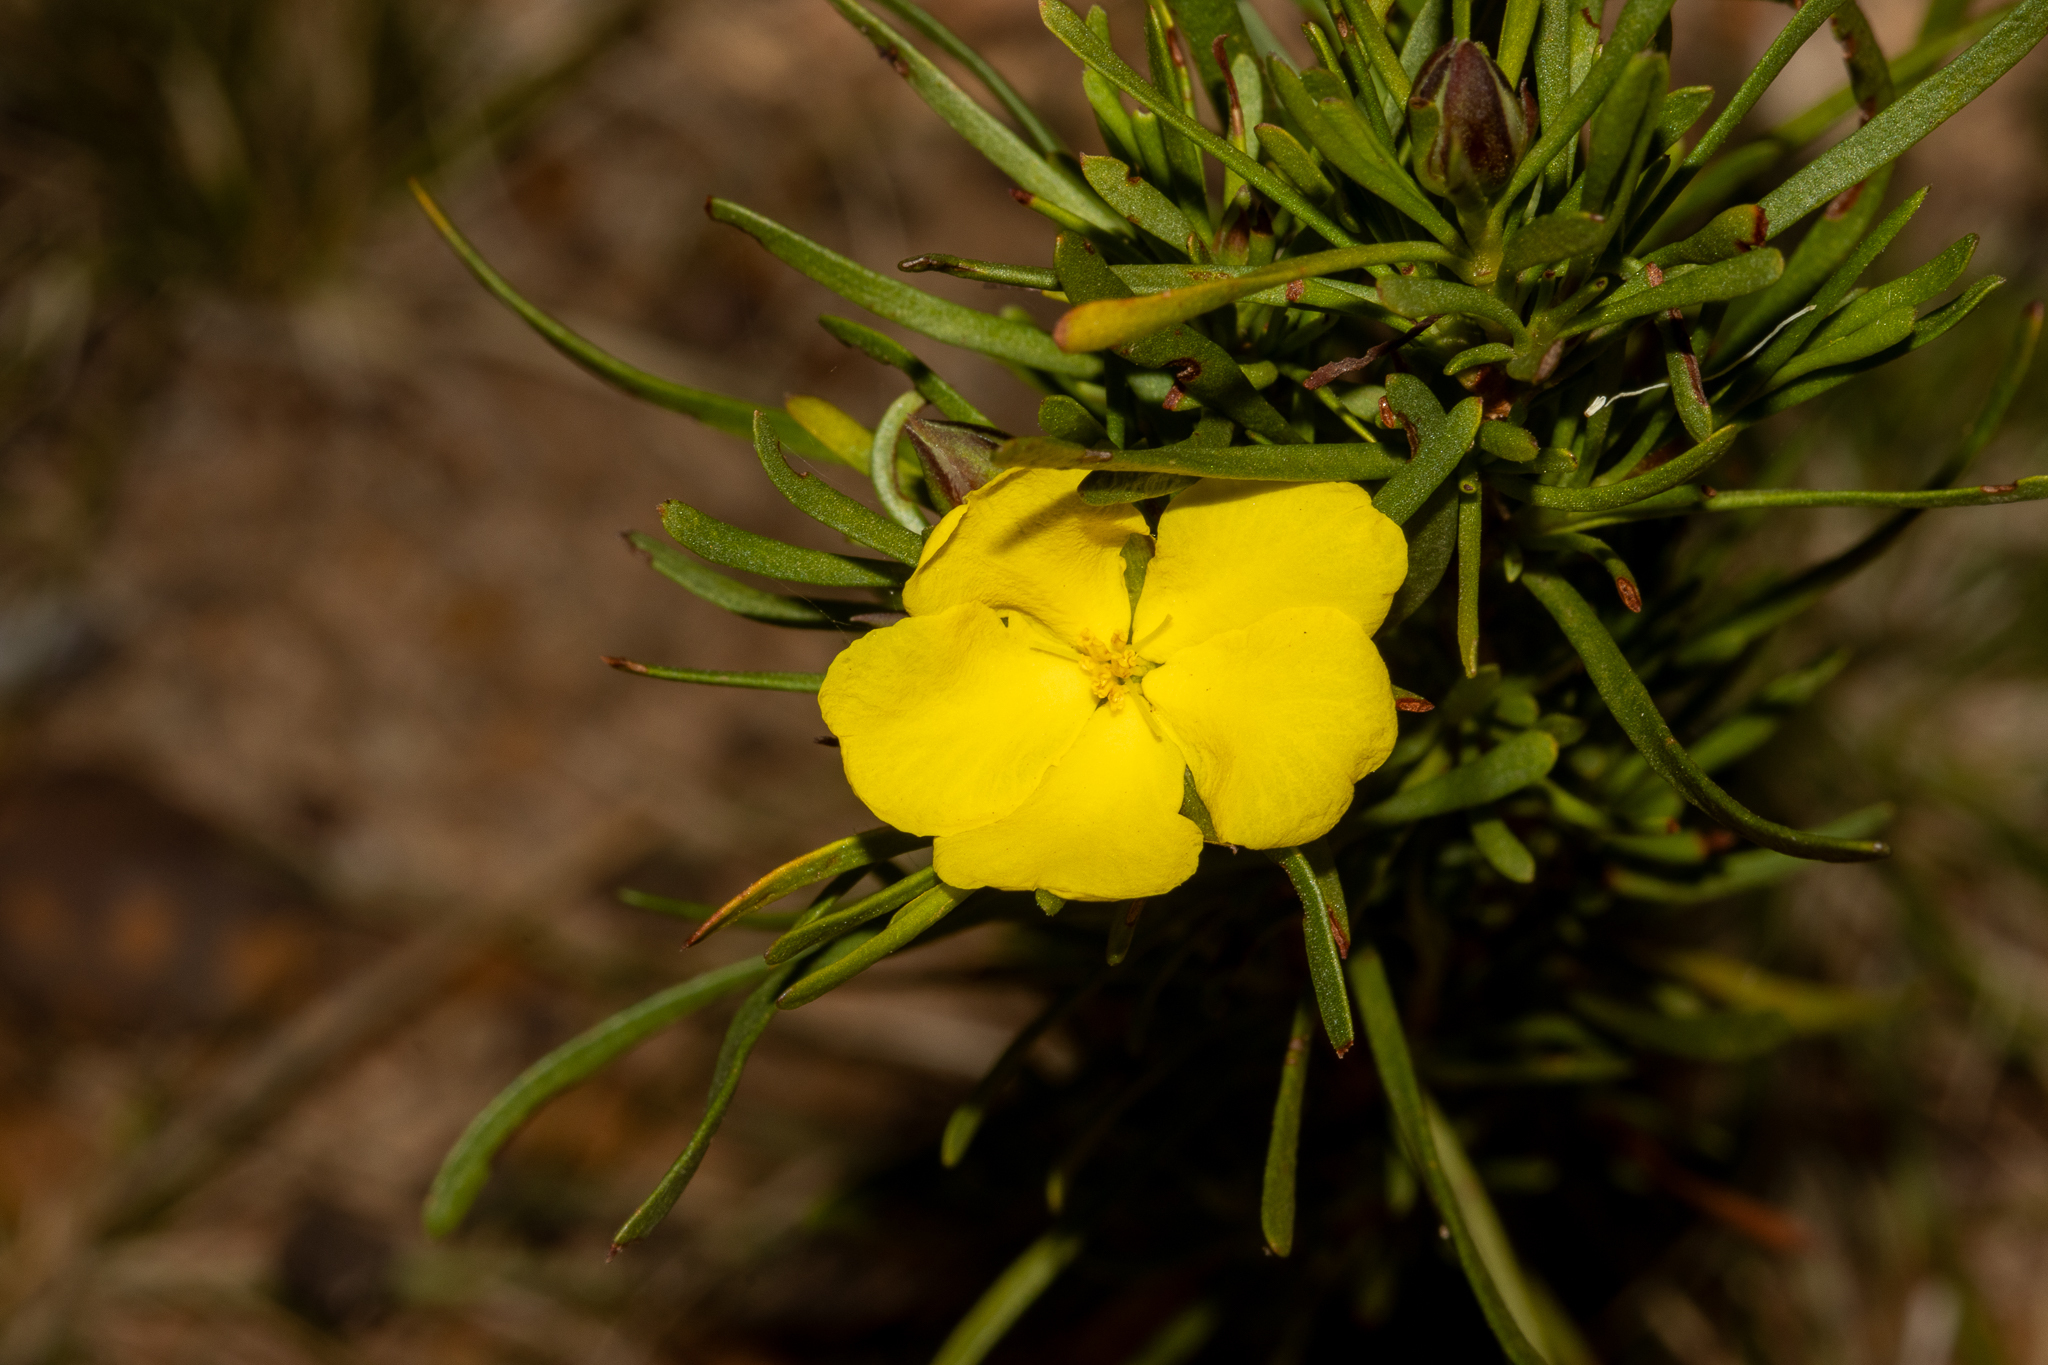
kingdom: Plantae
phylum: Tracheophyta
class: Magnoliopsida
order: Dilleniales
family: Dilleniaceae
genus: Hibbertia
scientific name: Hibbertia virgata
